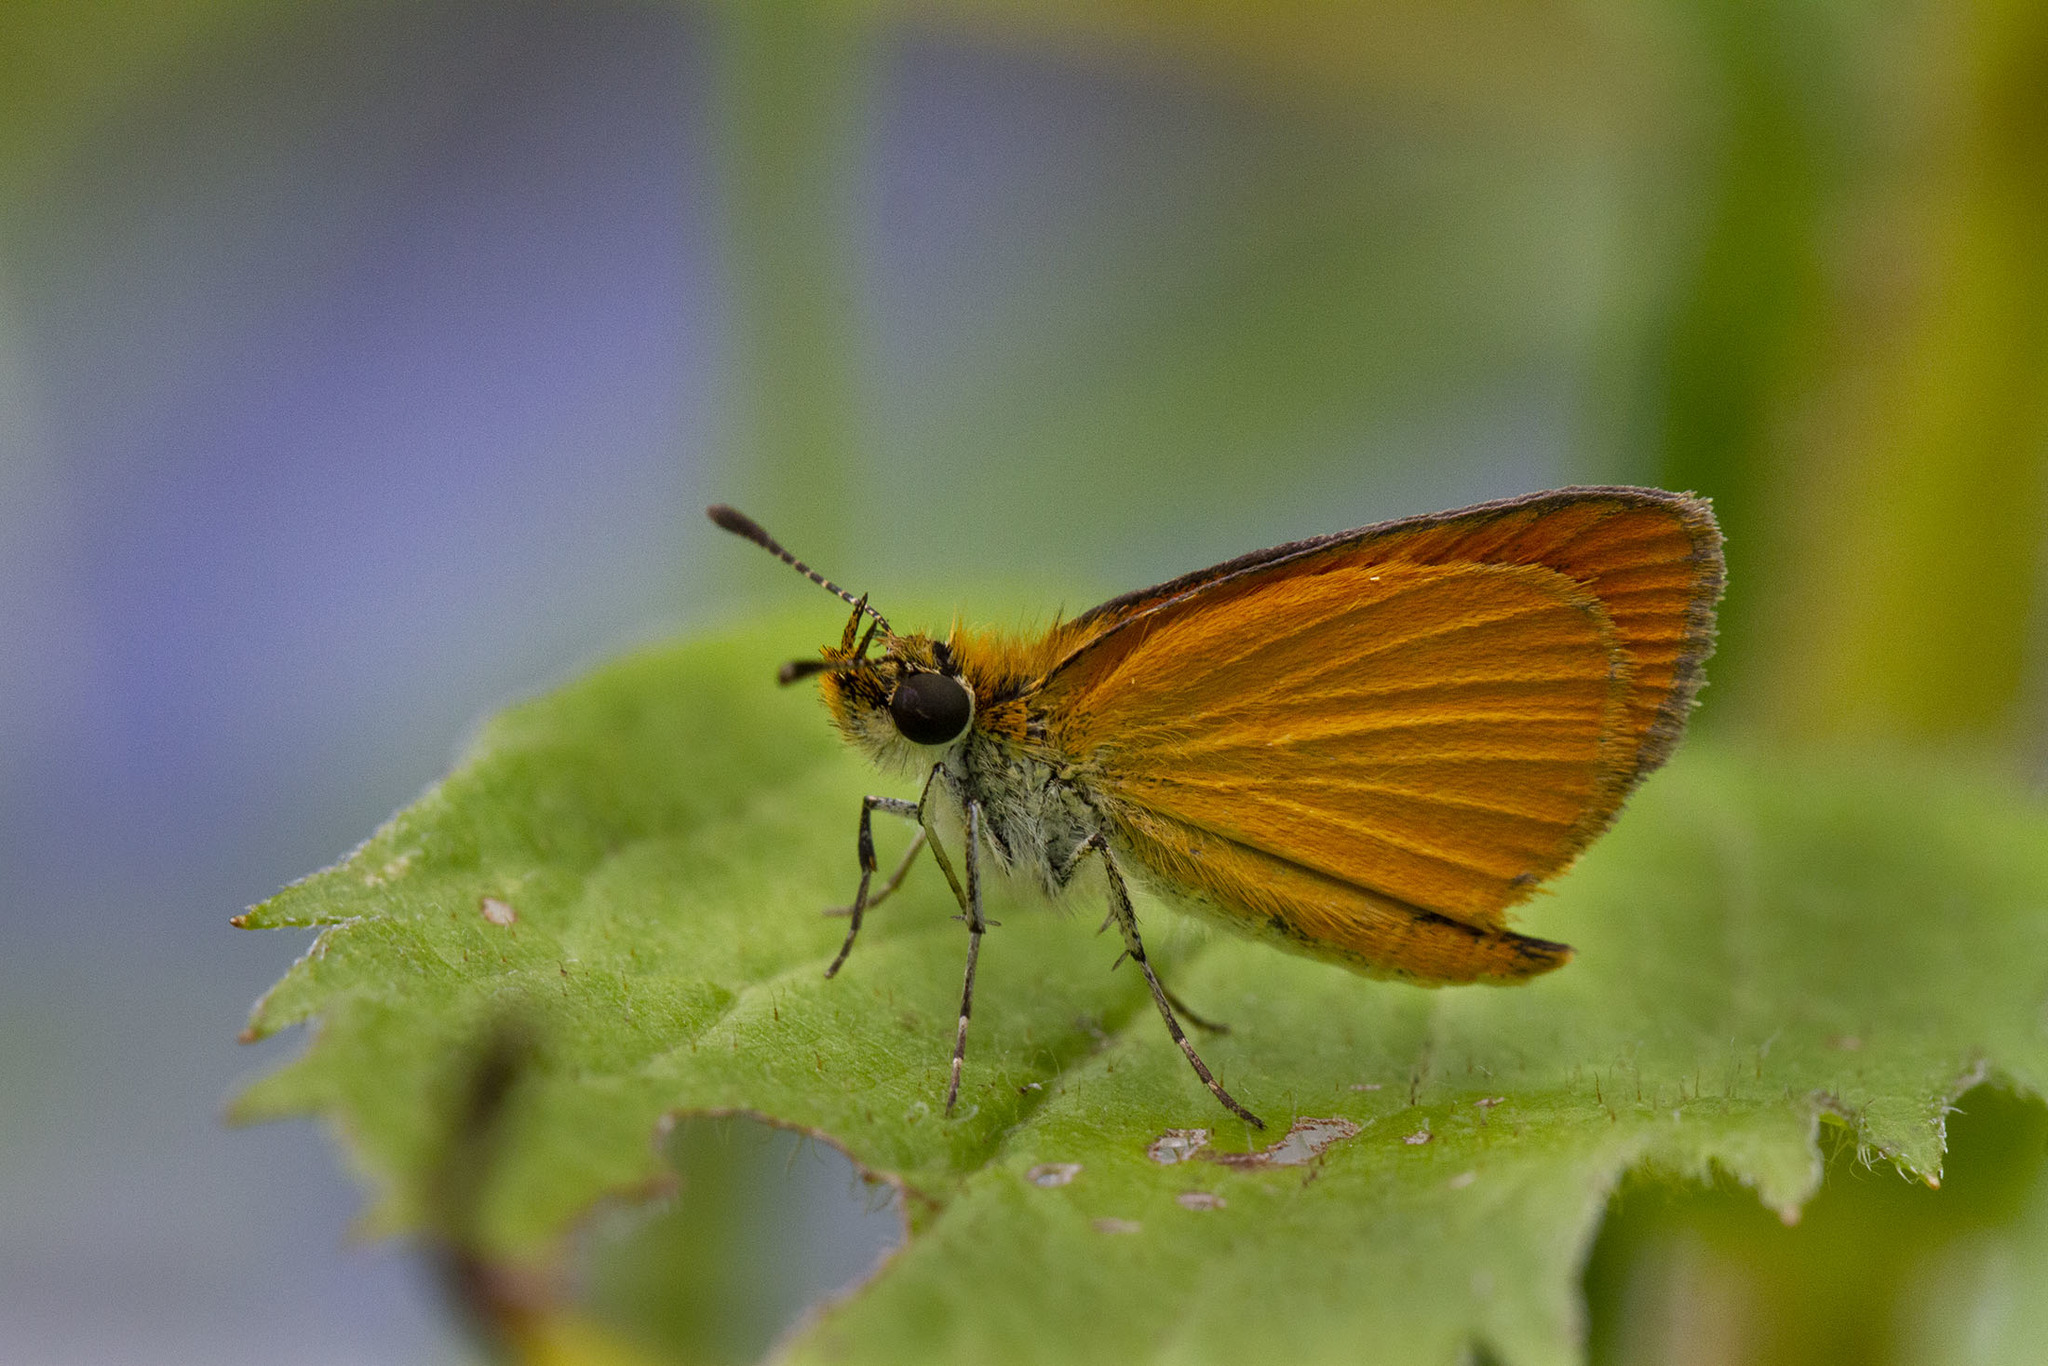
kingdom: Animalia
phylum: Arthropoda
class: Insecta
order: Lepidoptera
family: Hesperiidae
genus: Ancyloxypha
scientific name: Ancyloxypha numitor
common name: Least skipper
